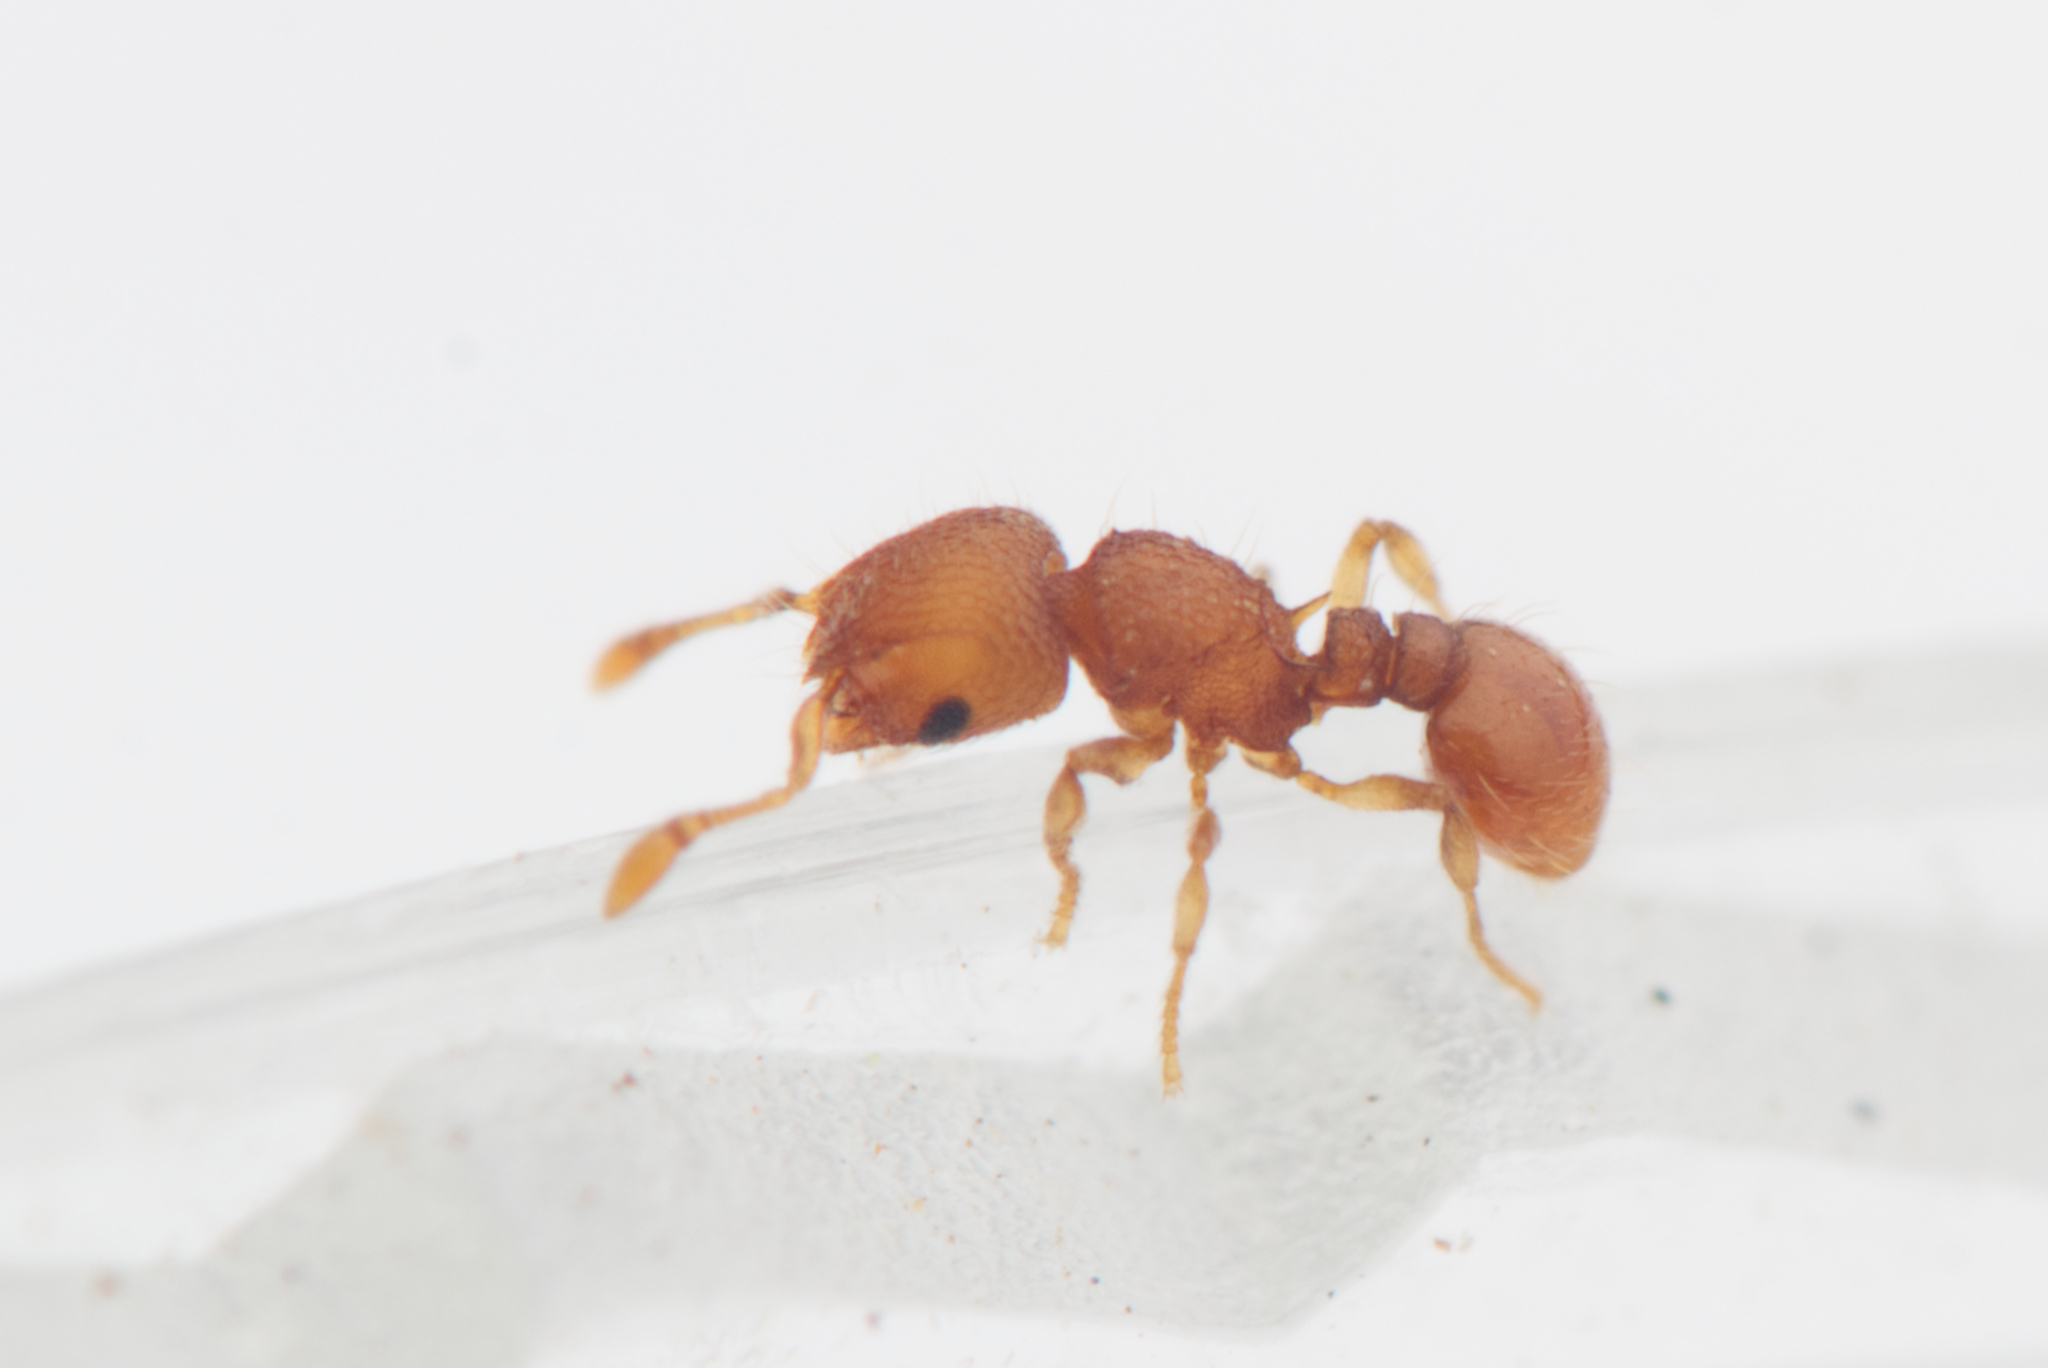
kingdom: Animalia
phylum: Arthropoda
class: Insecta
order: Hymenoptera
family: Formicidae
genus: Mayriella
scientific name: Mayriella spinosior
